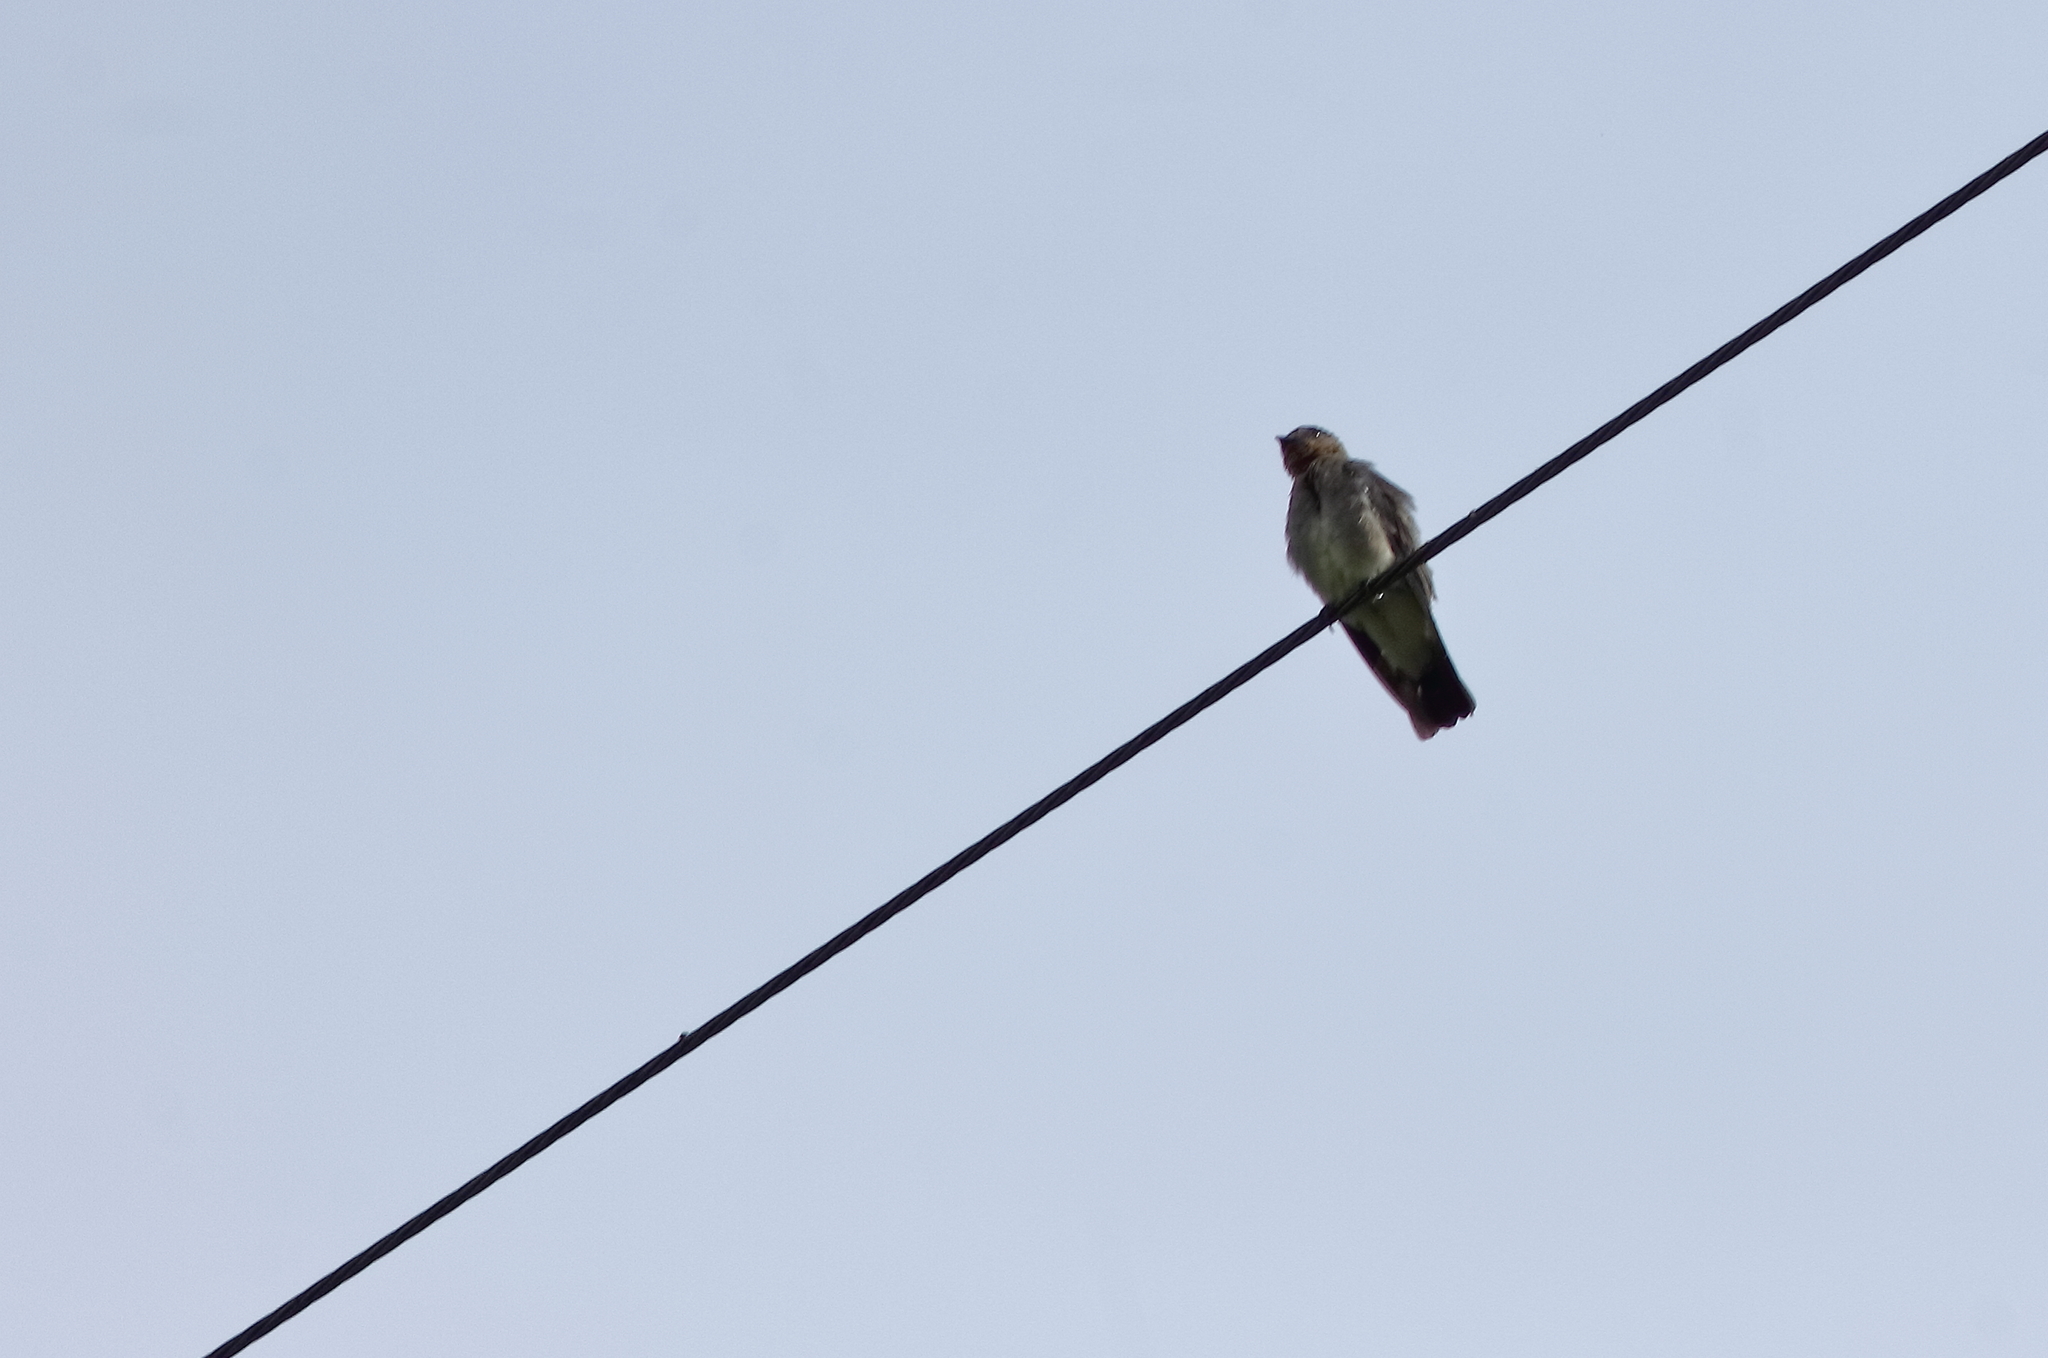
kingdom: Animalia
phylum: Chordata
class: Aves
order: Passeriformes
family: Hirundinidae
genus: Stelgidopteryx
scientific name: Stelgidopteryx ruficollis
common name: Southern rough-winged swallow
